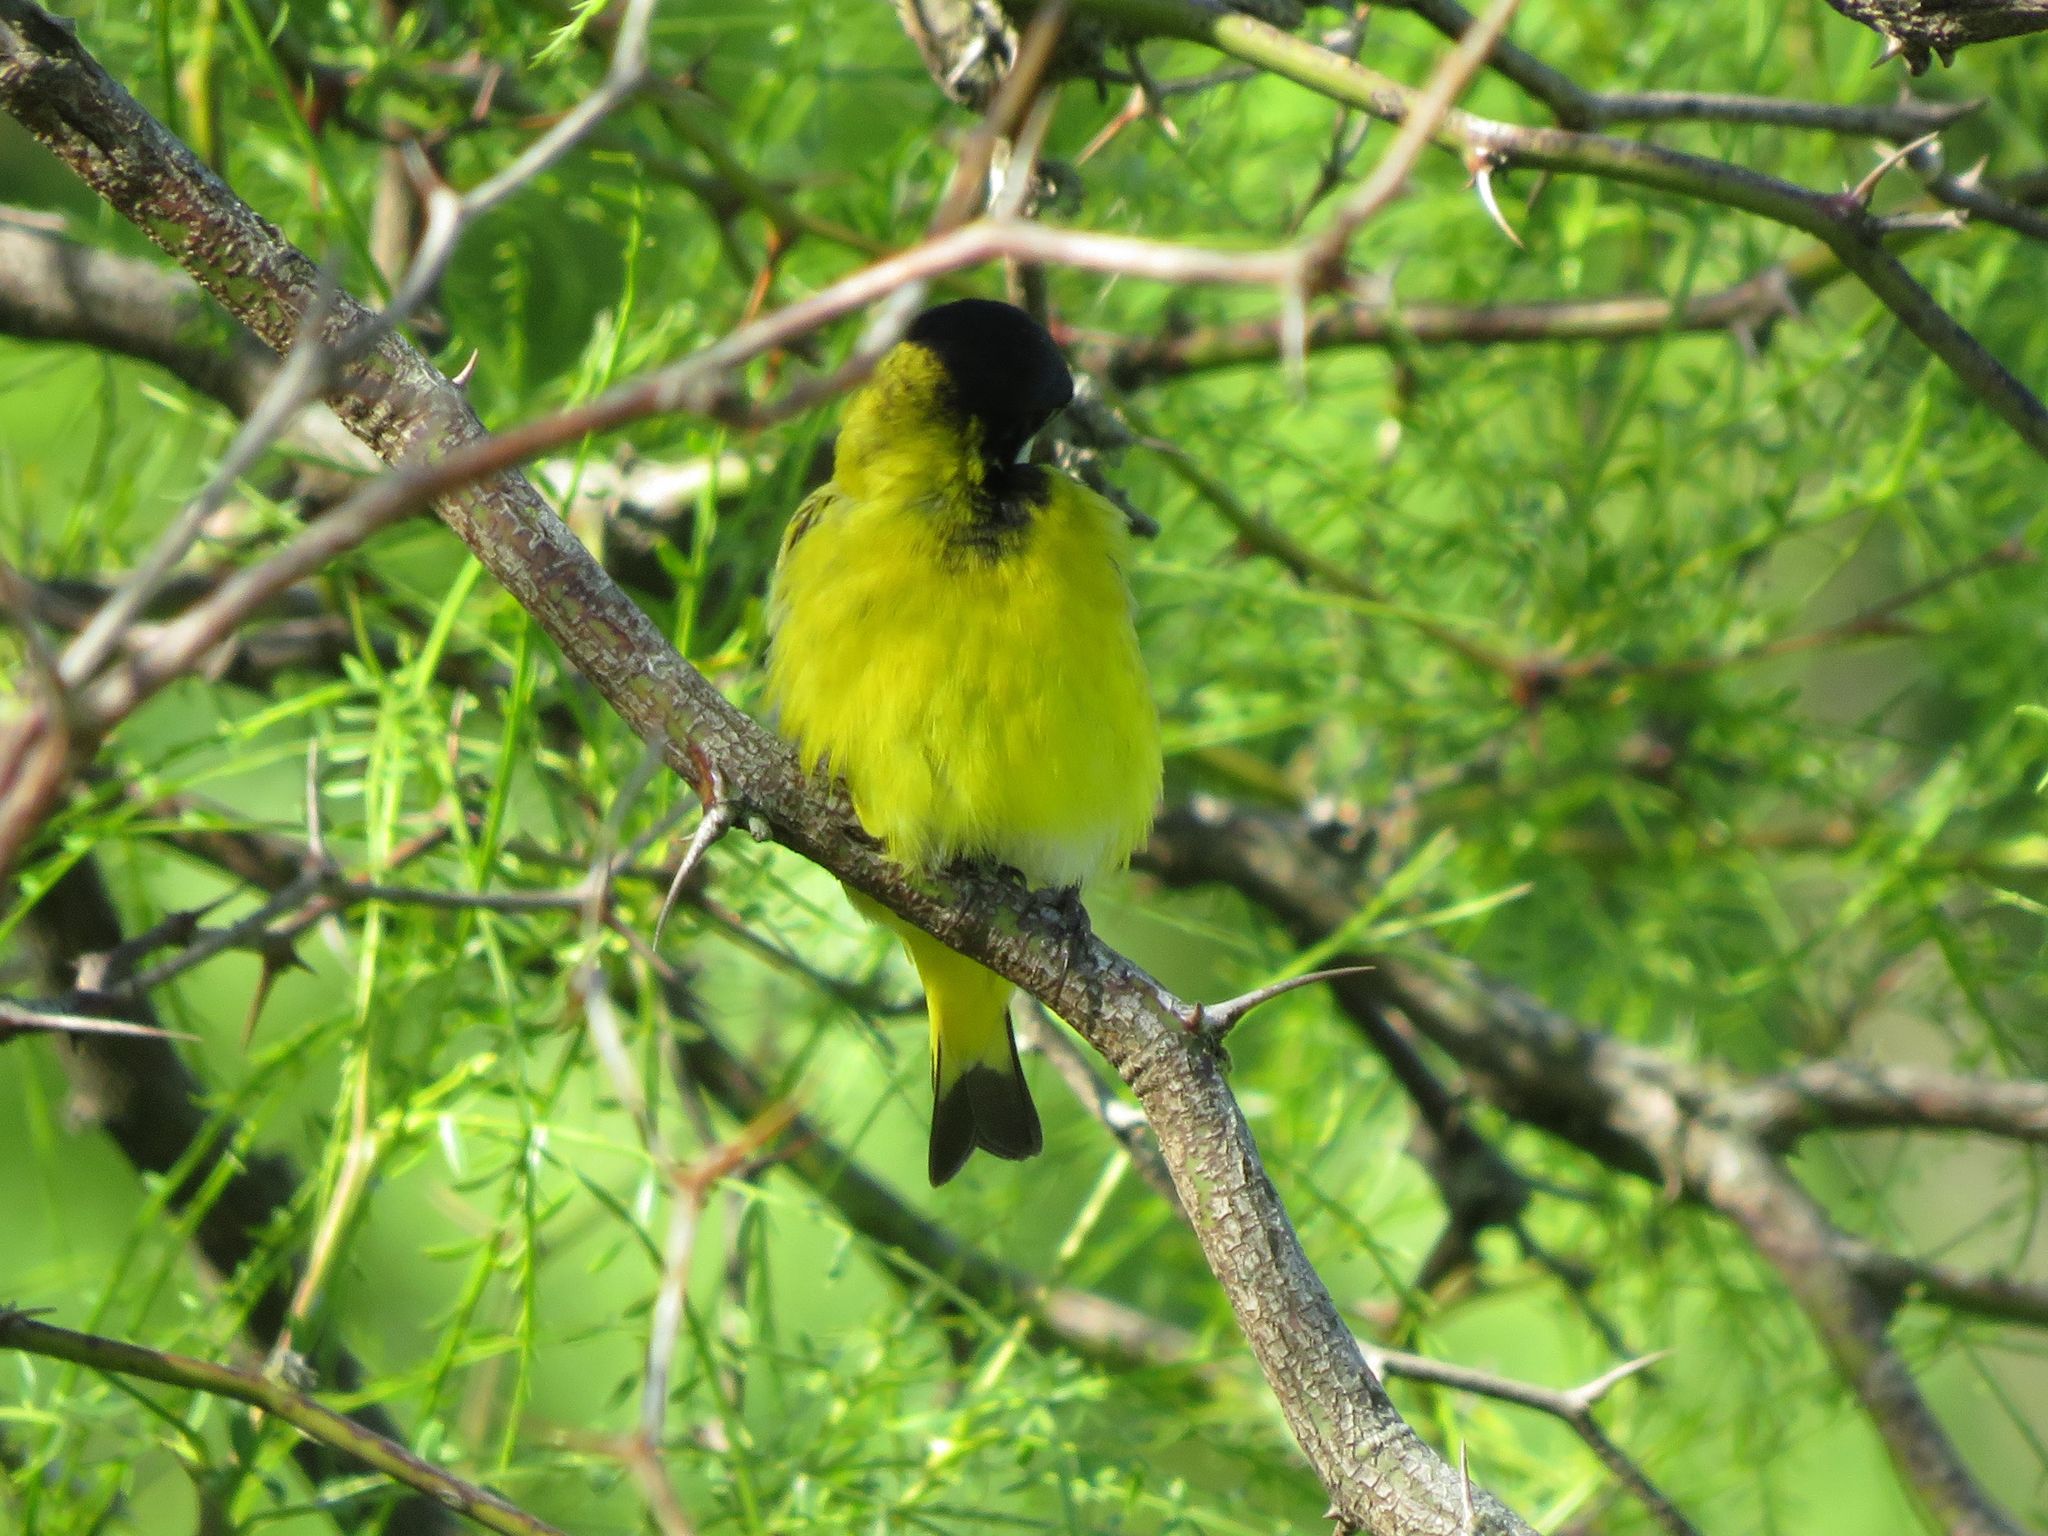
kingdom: Animalia
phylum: Chordata
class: Aves
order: Passeriformes
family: Fringillidae
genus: Spinus
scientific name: Spinus magellanicus
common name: Hooded siskin
